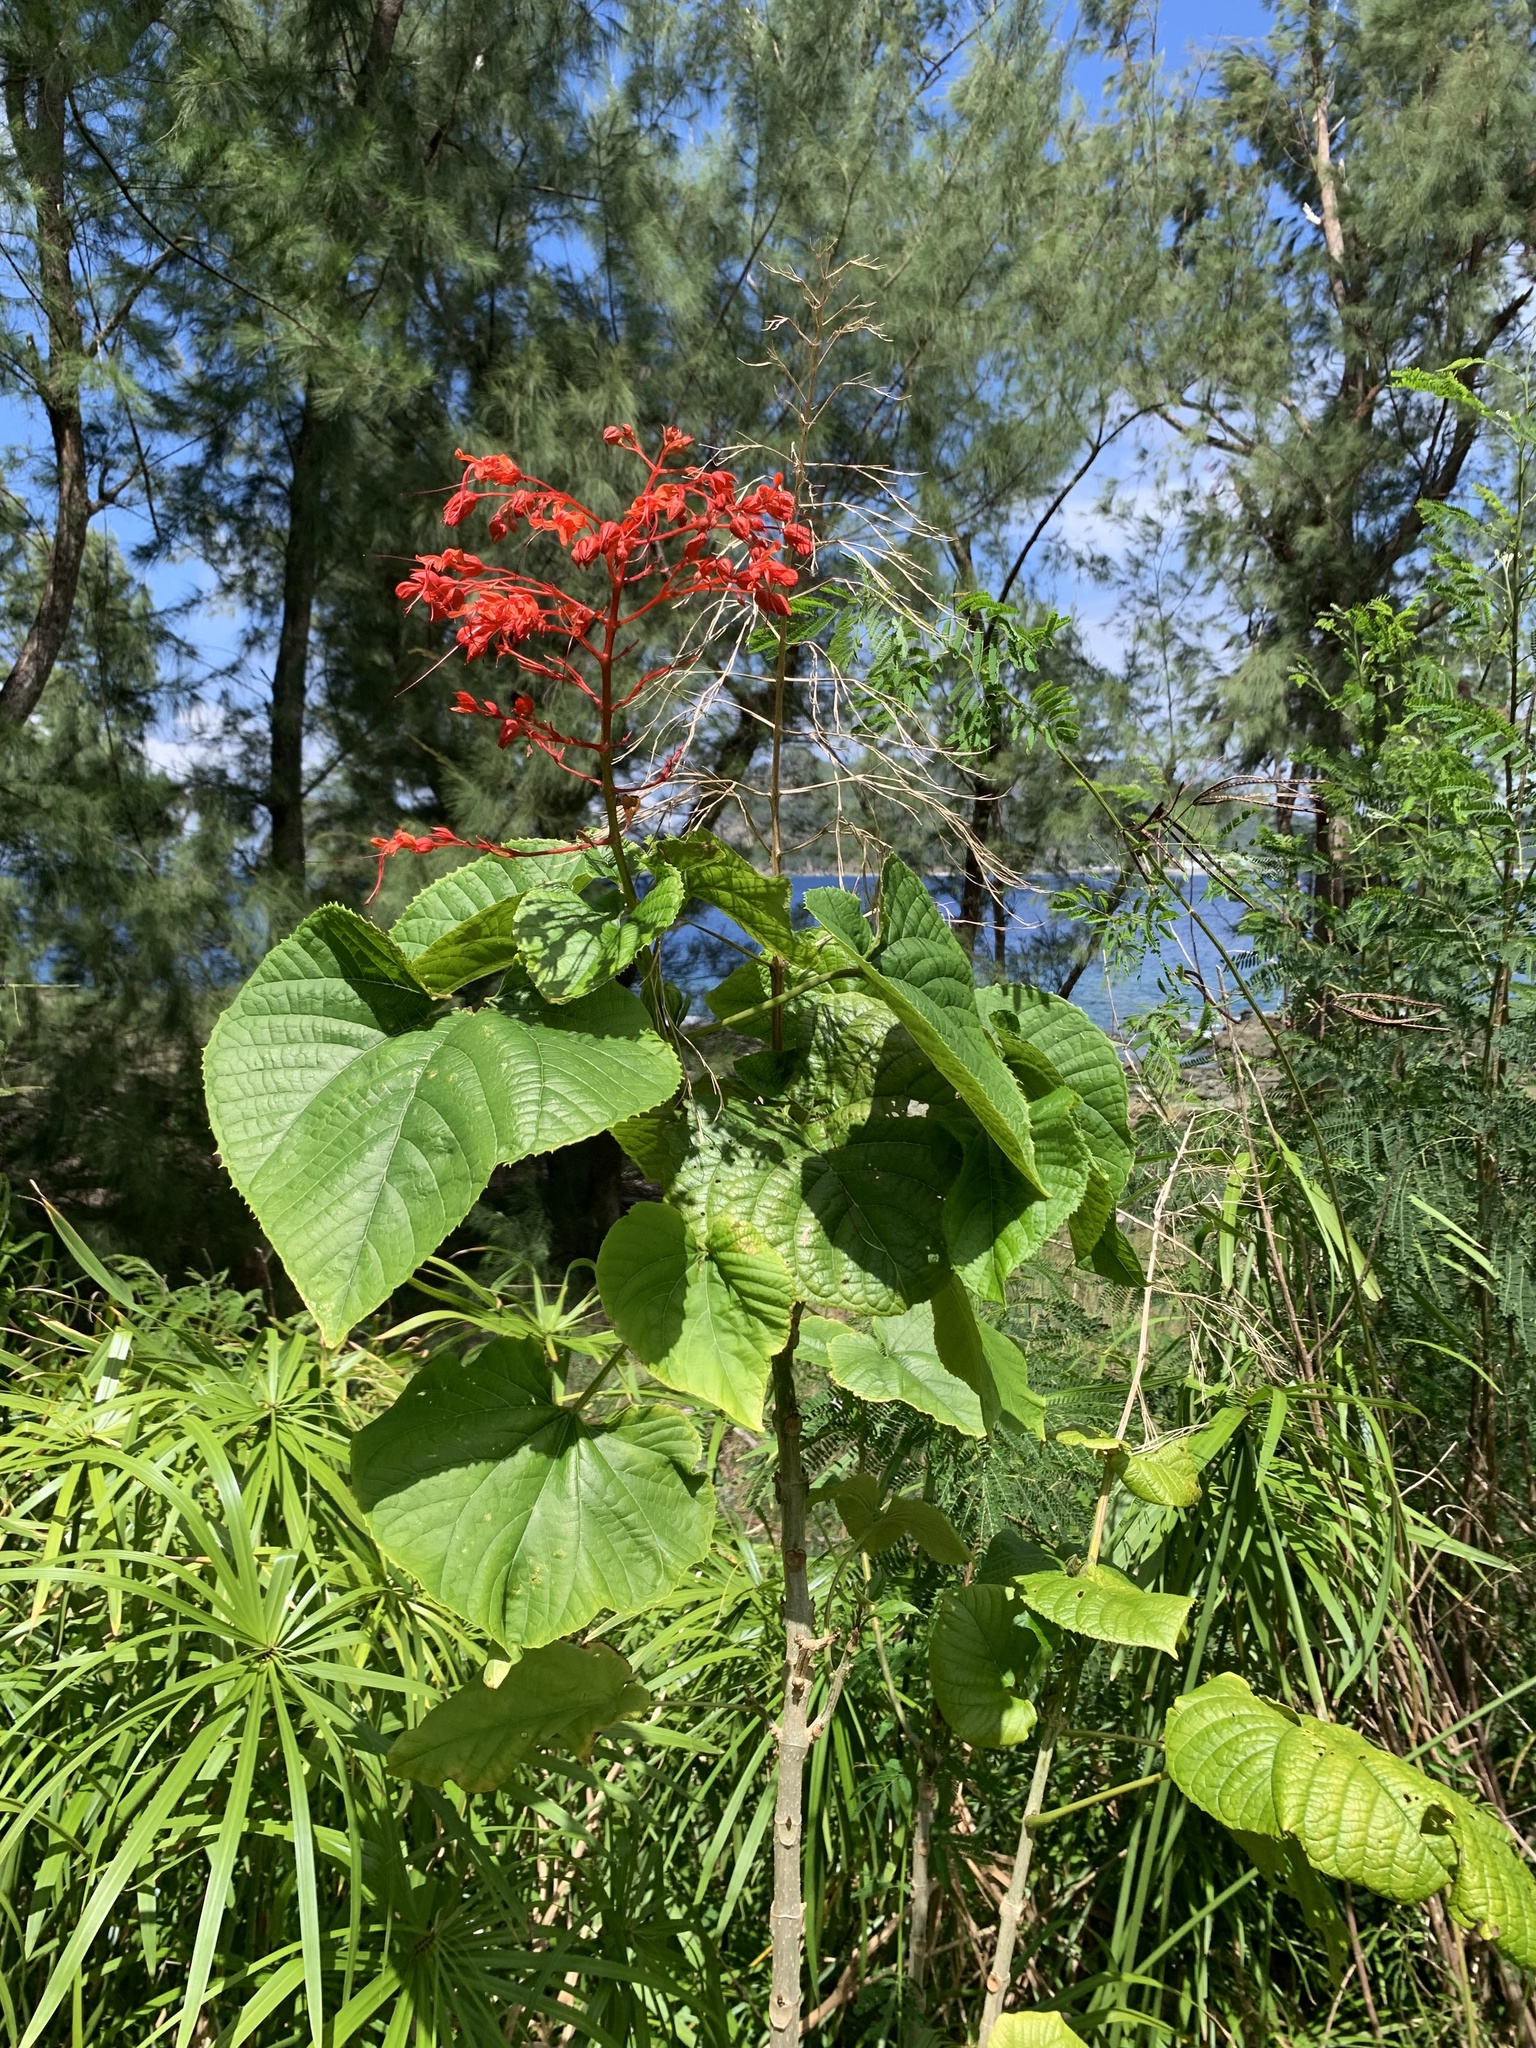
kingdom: Plantae
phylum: Tracheophyta
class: Magnoliopsida
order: Lamiales
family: Lamiaceae
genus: Clerodendrum
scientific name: Clerodendrum japonicum
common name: Japanese glorybower
